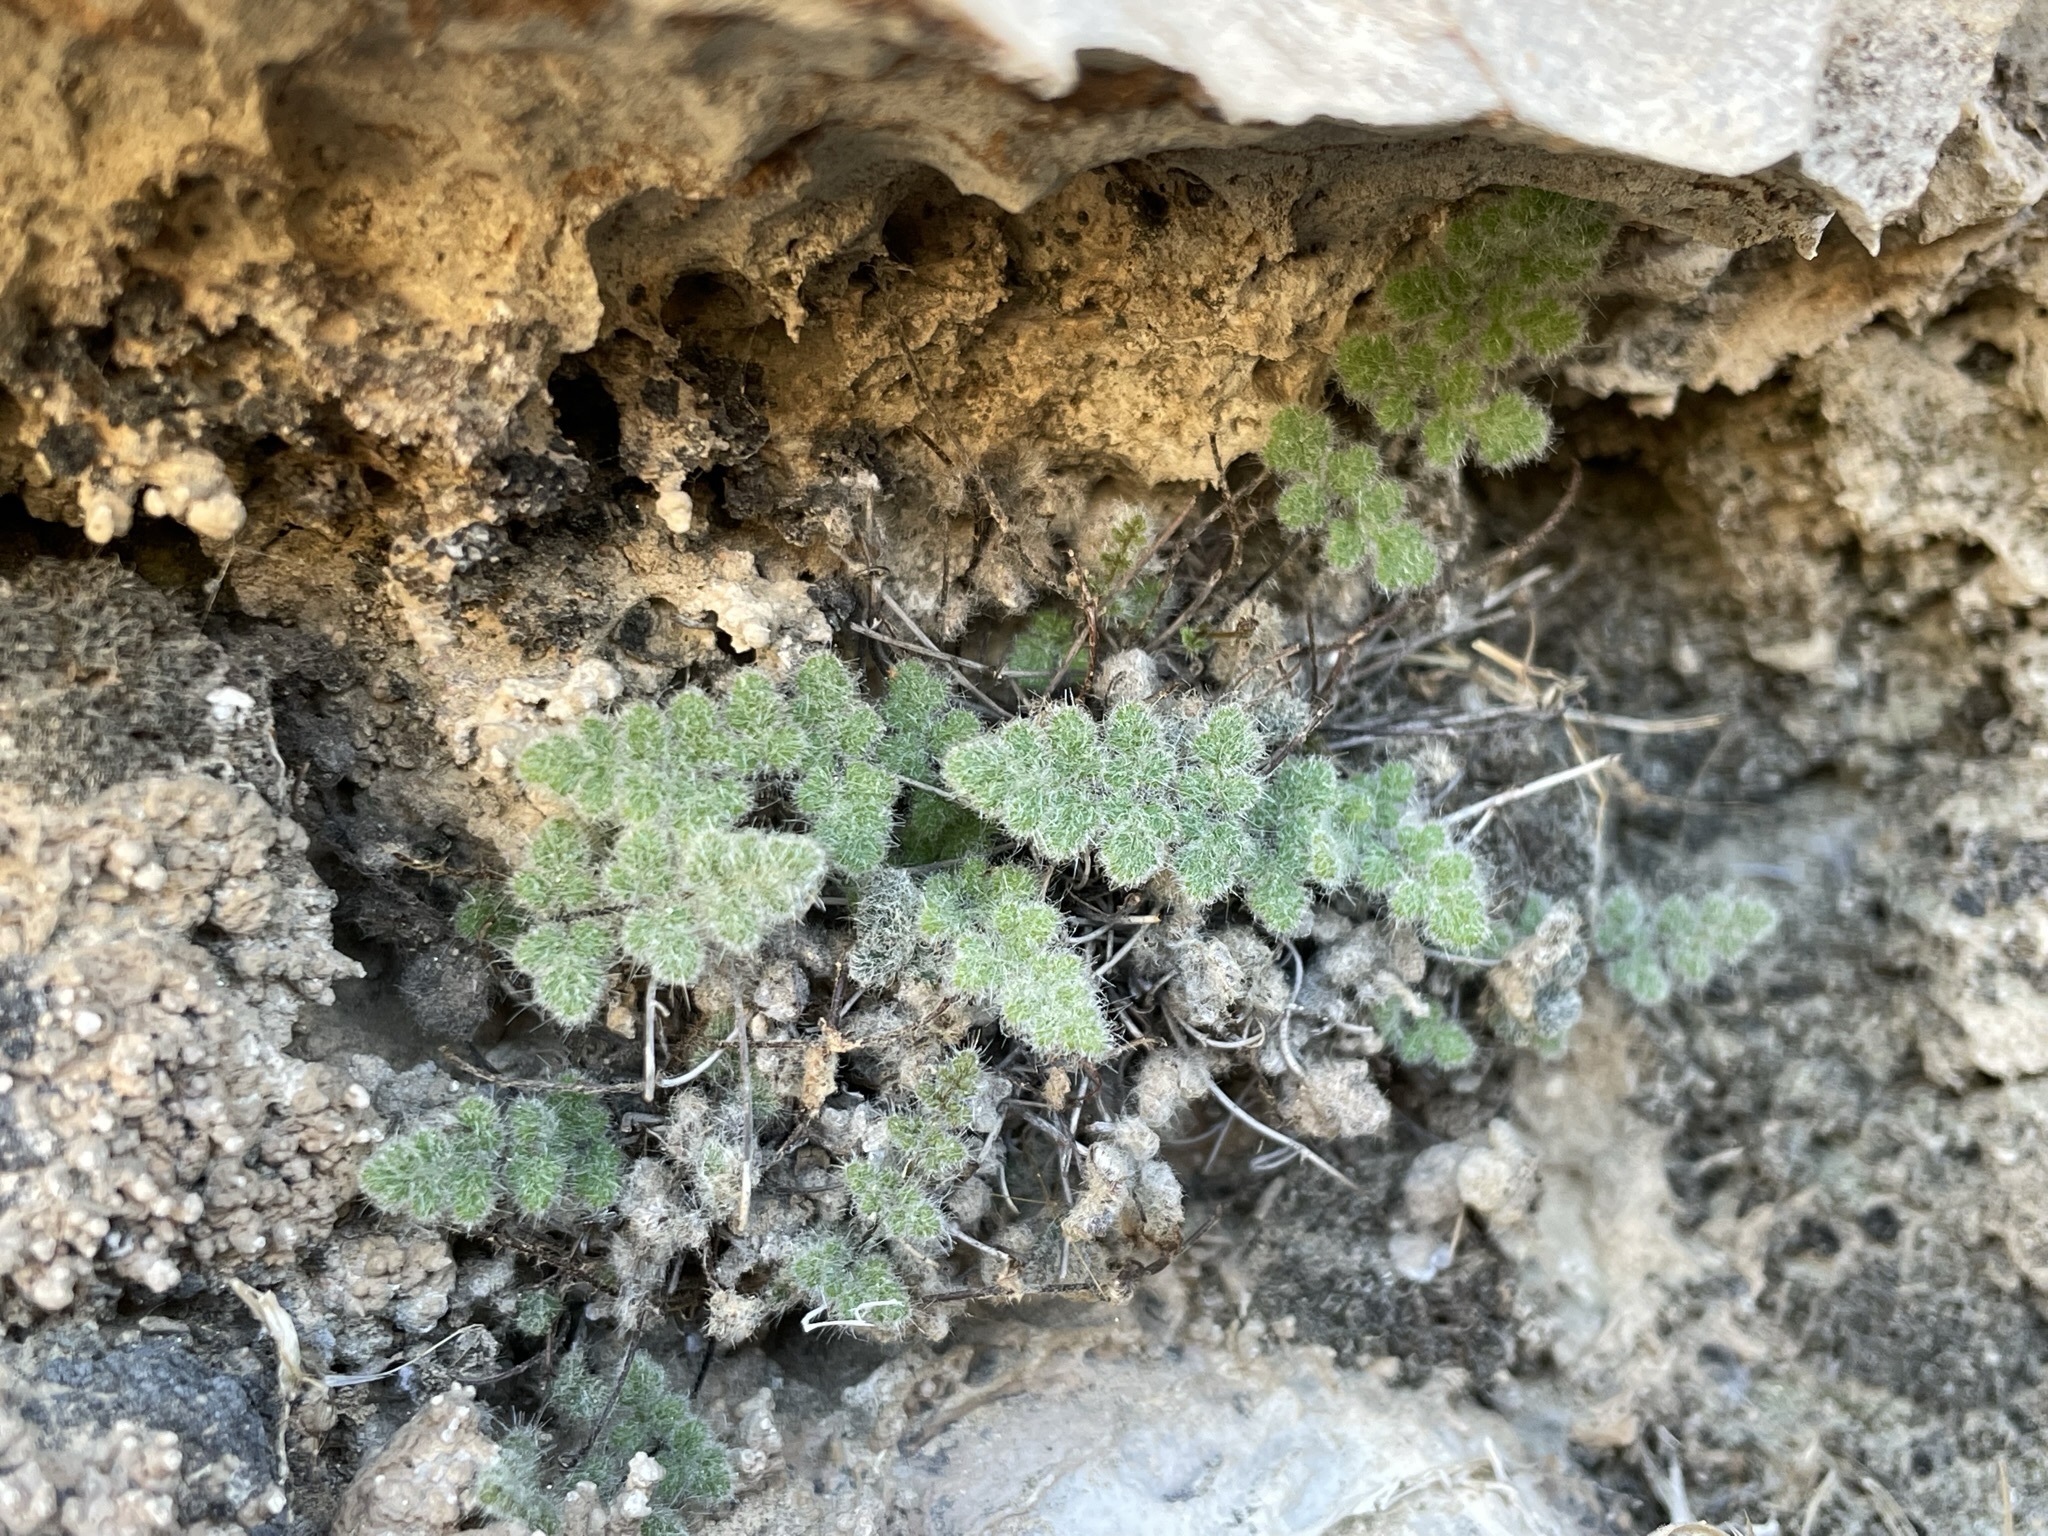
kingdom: Plantae
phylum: Tracheophyta
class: Polypodiopsida
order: Polypodiales
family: Pteridaceae
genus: Myriopteris
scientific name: Myriopteris parryi
